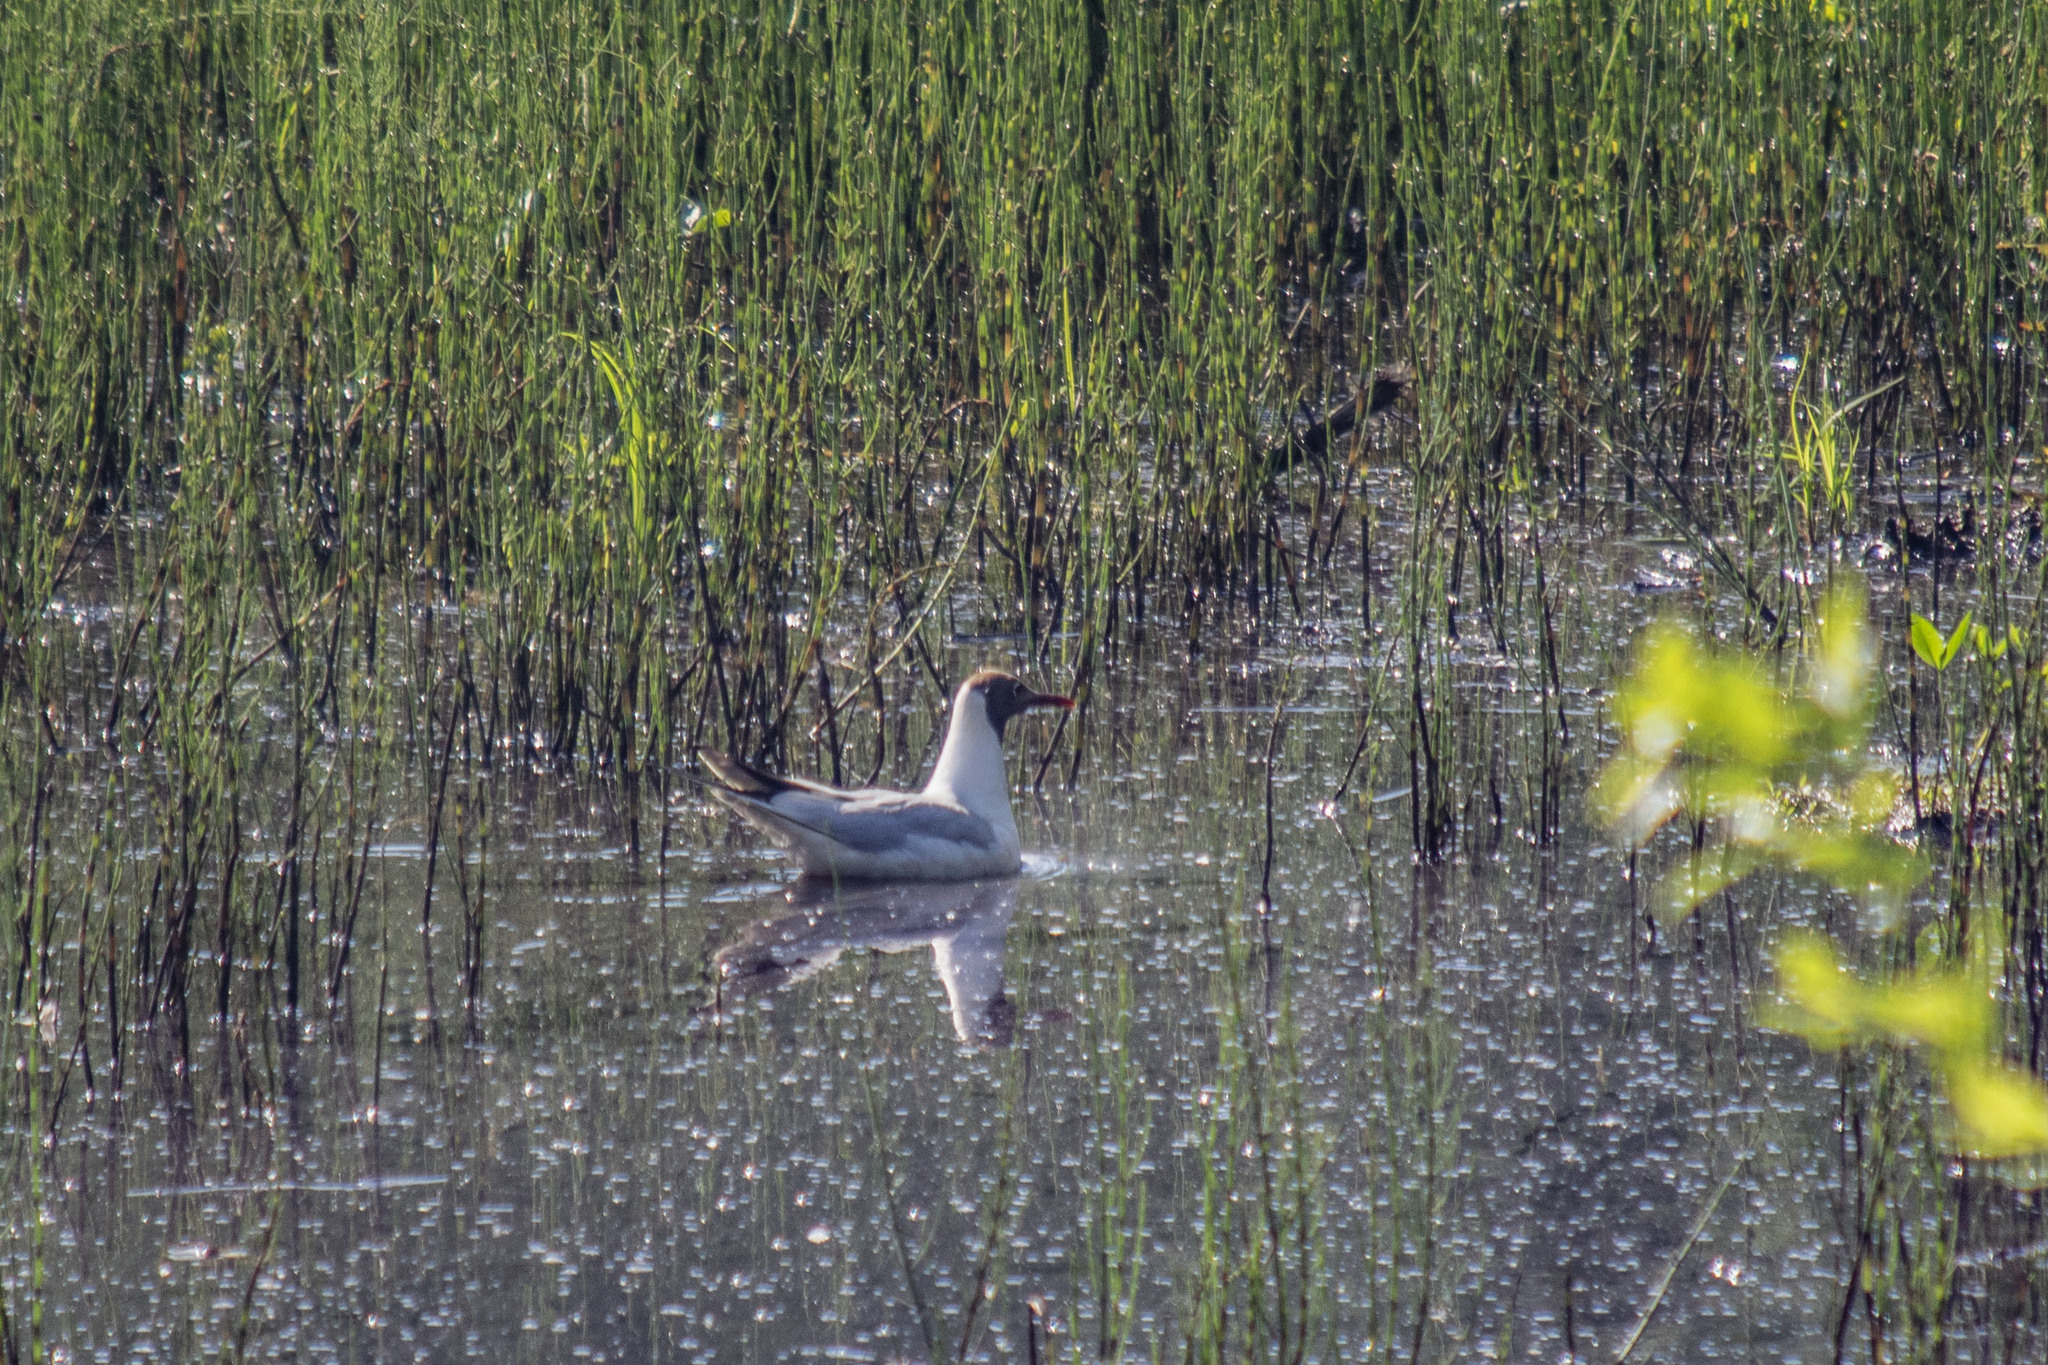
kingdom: Animalia
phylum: Chordata
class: Aves
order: Charadriiformes
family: Laridae
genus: Chroicocephalus
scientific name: Chroicocephalus ridibundus
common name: Black-headed gull
